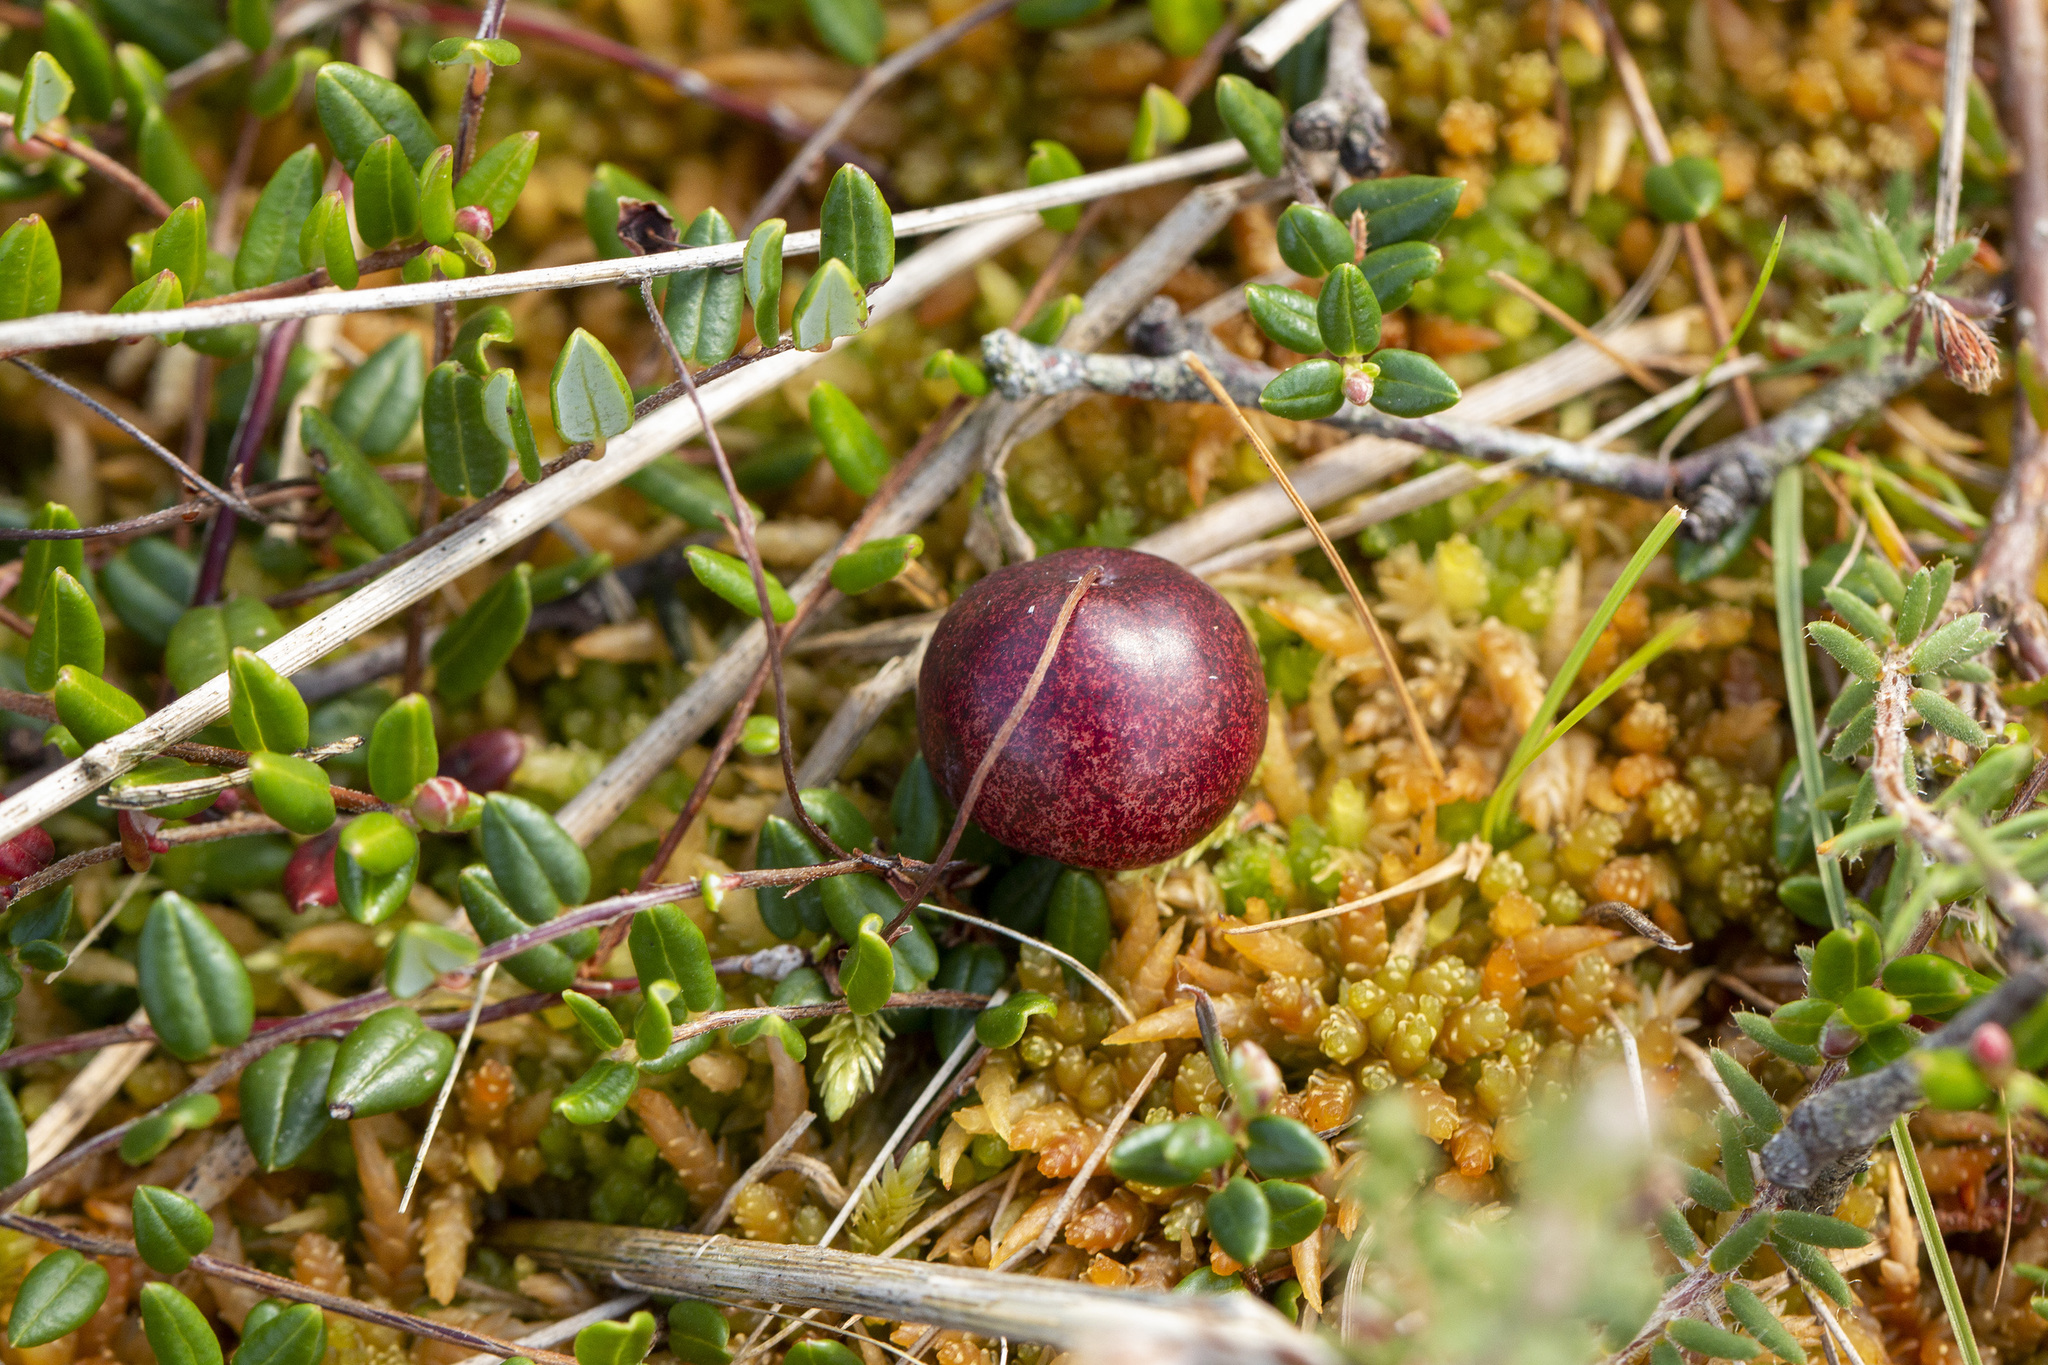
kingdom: Plantae
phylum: Tracheophyta
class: Magnoliopsida
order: Ericales
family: Ericaceae
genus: Vaccinium
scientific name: Vaccinium oxycoccos
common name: Cranberry
